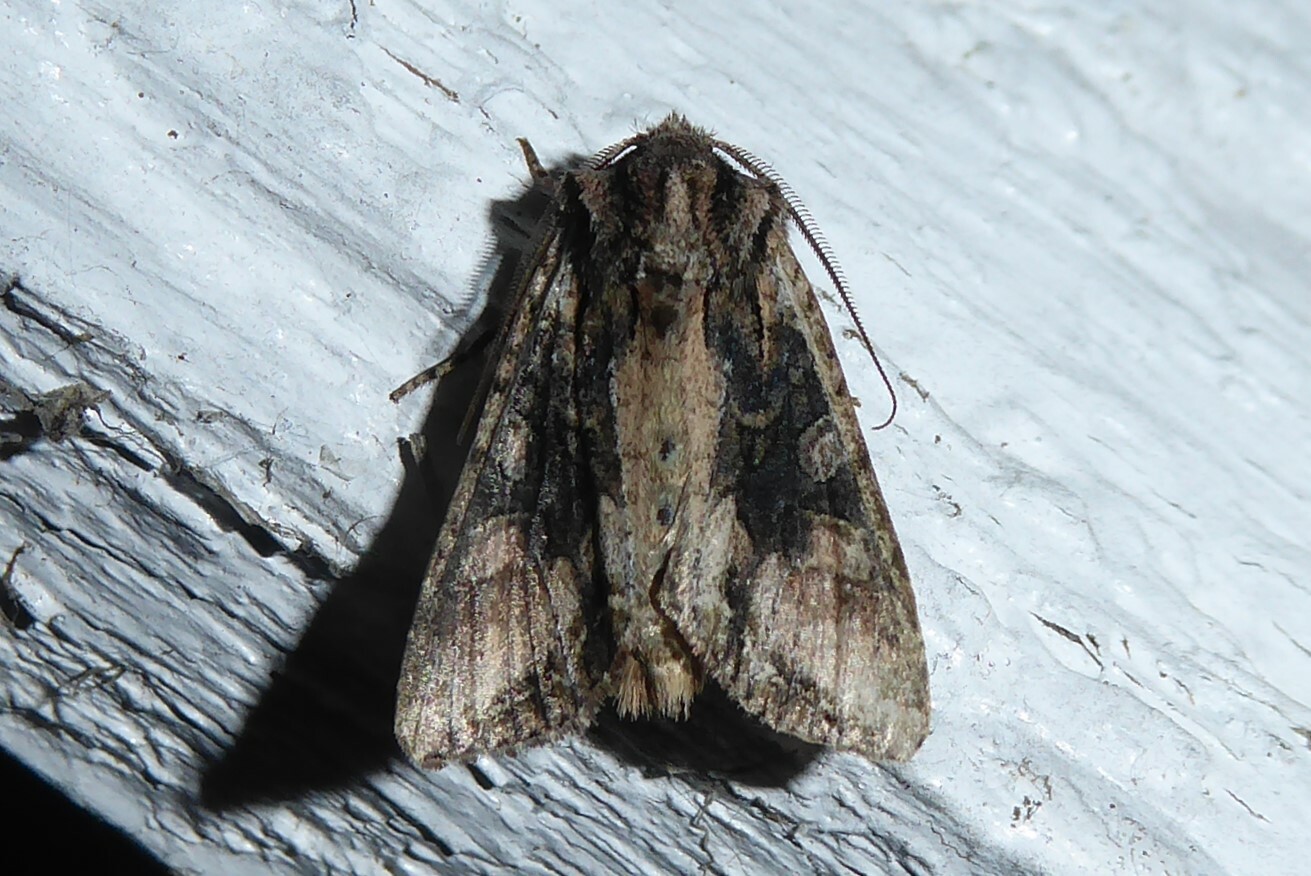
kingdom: Animalia
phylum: Arthropoda
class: Insecta
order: Lepidoptera
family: Noctuidae
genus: Ichneutica
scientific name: Ichneutica mutans
